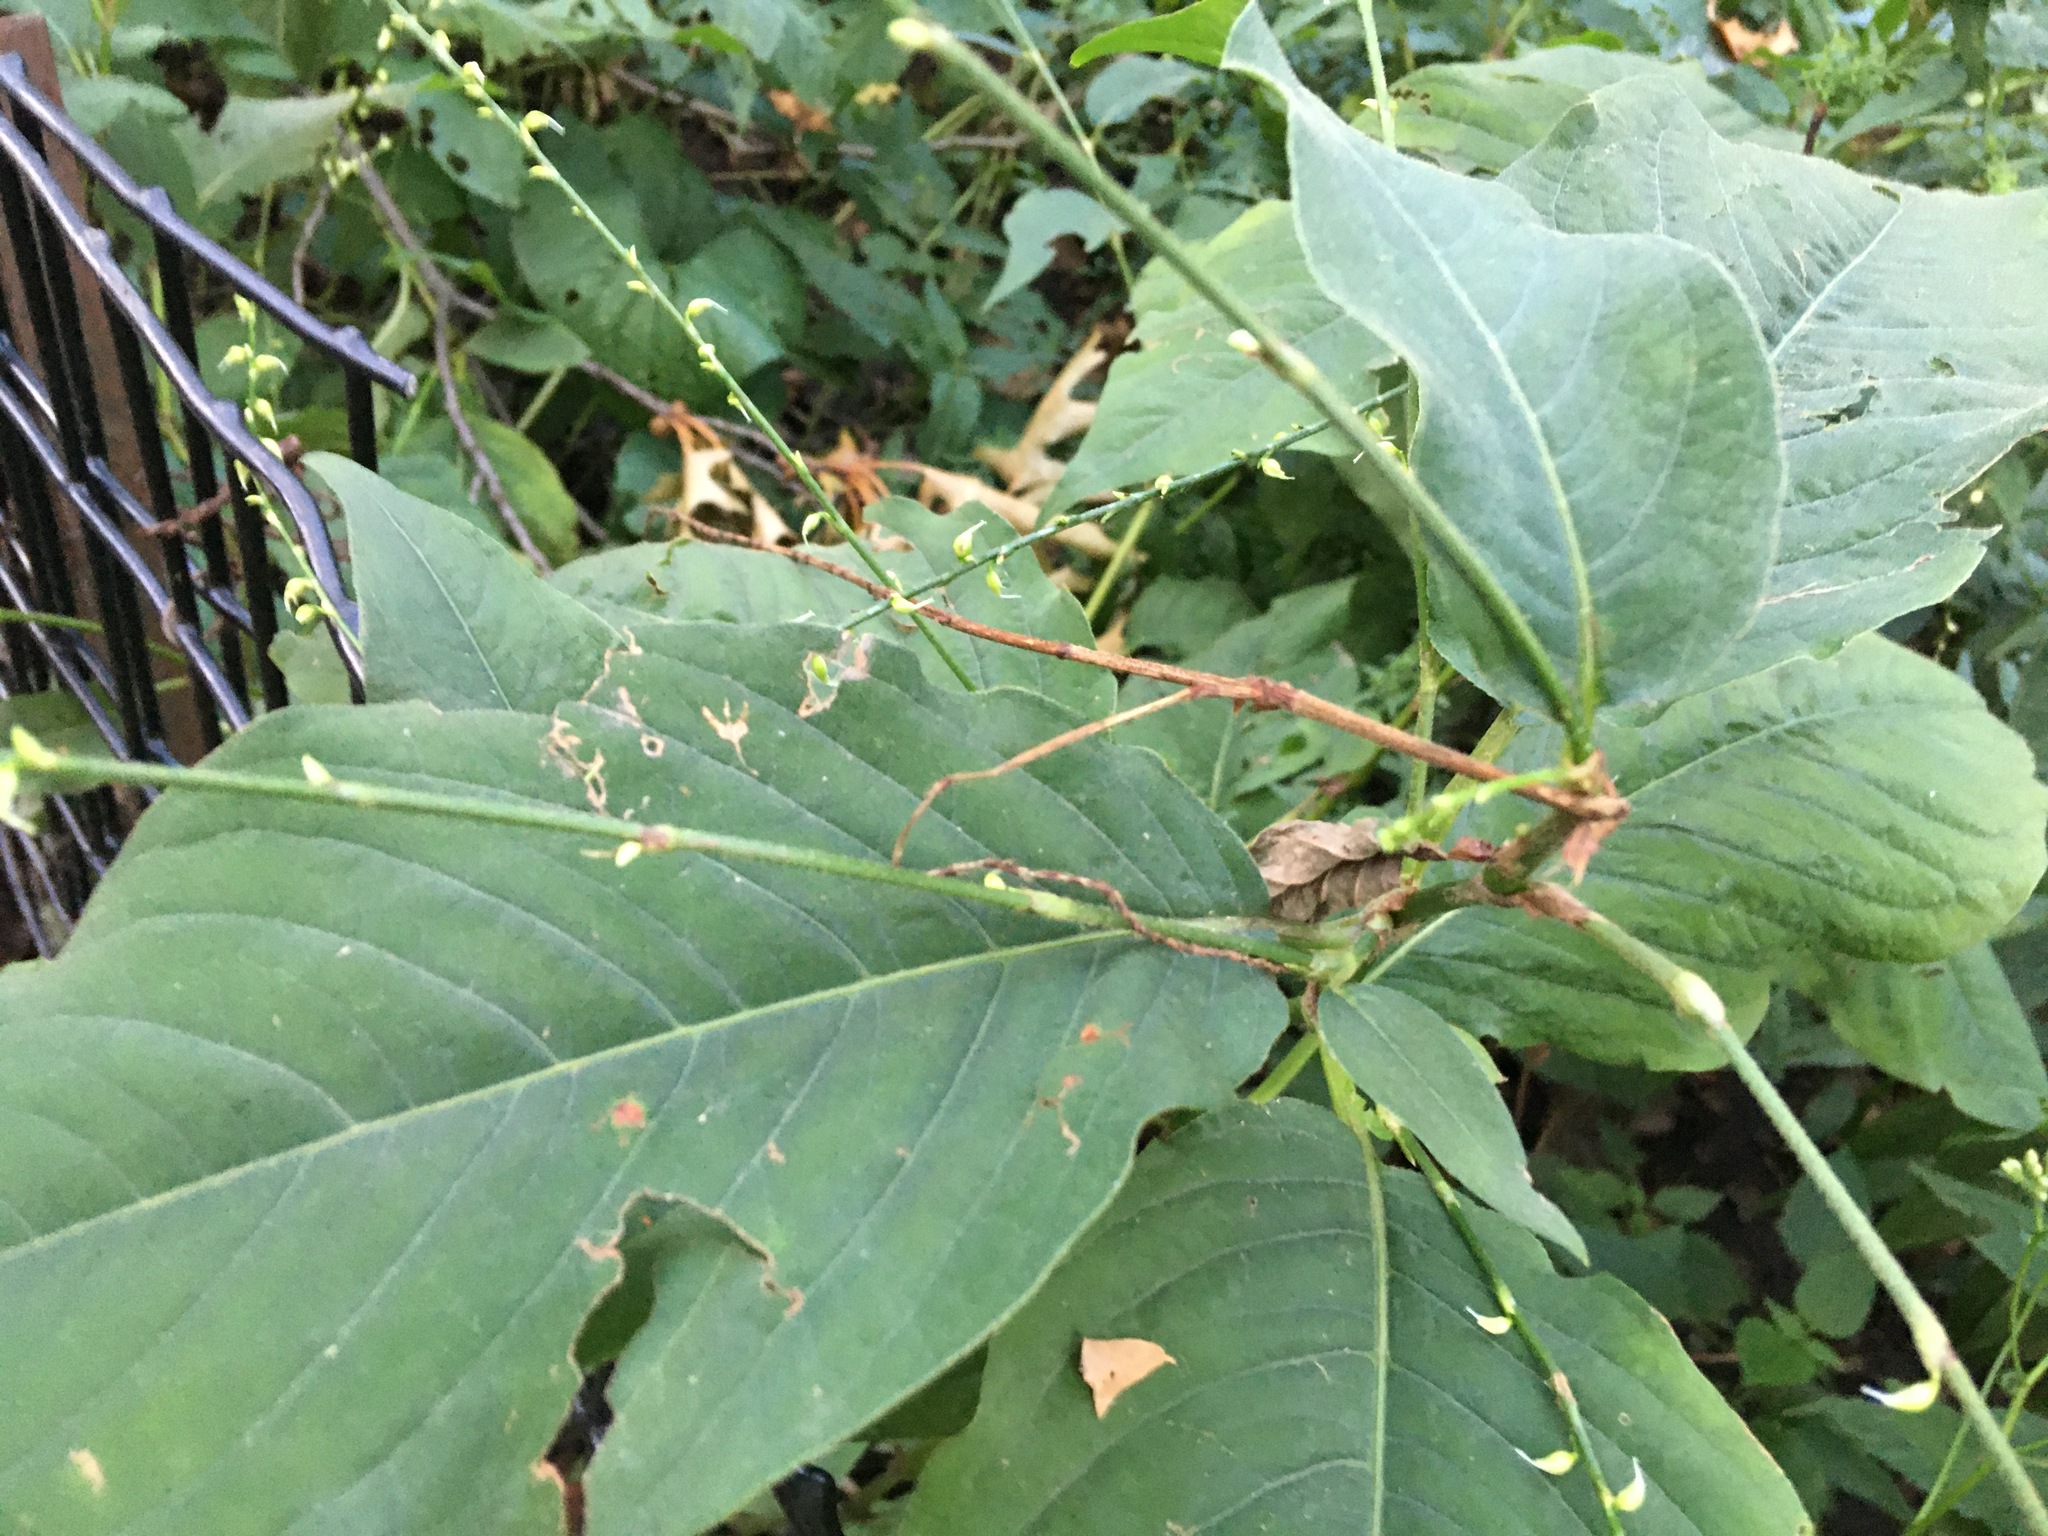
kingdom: Plantae
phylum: Tracheophyta
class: Magnoliopsida
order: Caryophyllales
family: Polygonaceae
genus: Persicaria
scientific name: Persicaria virginiana
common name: Jumpseed
